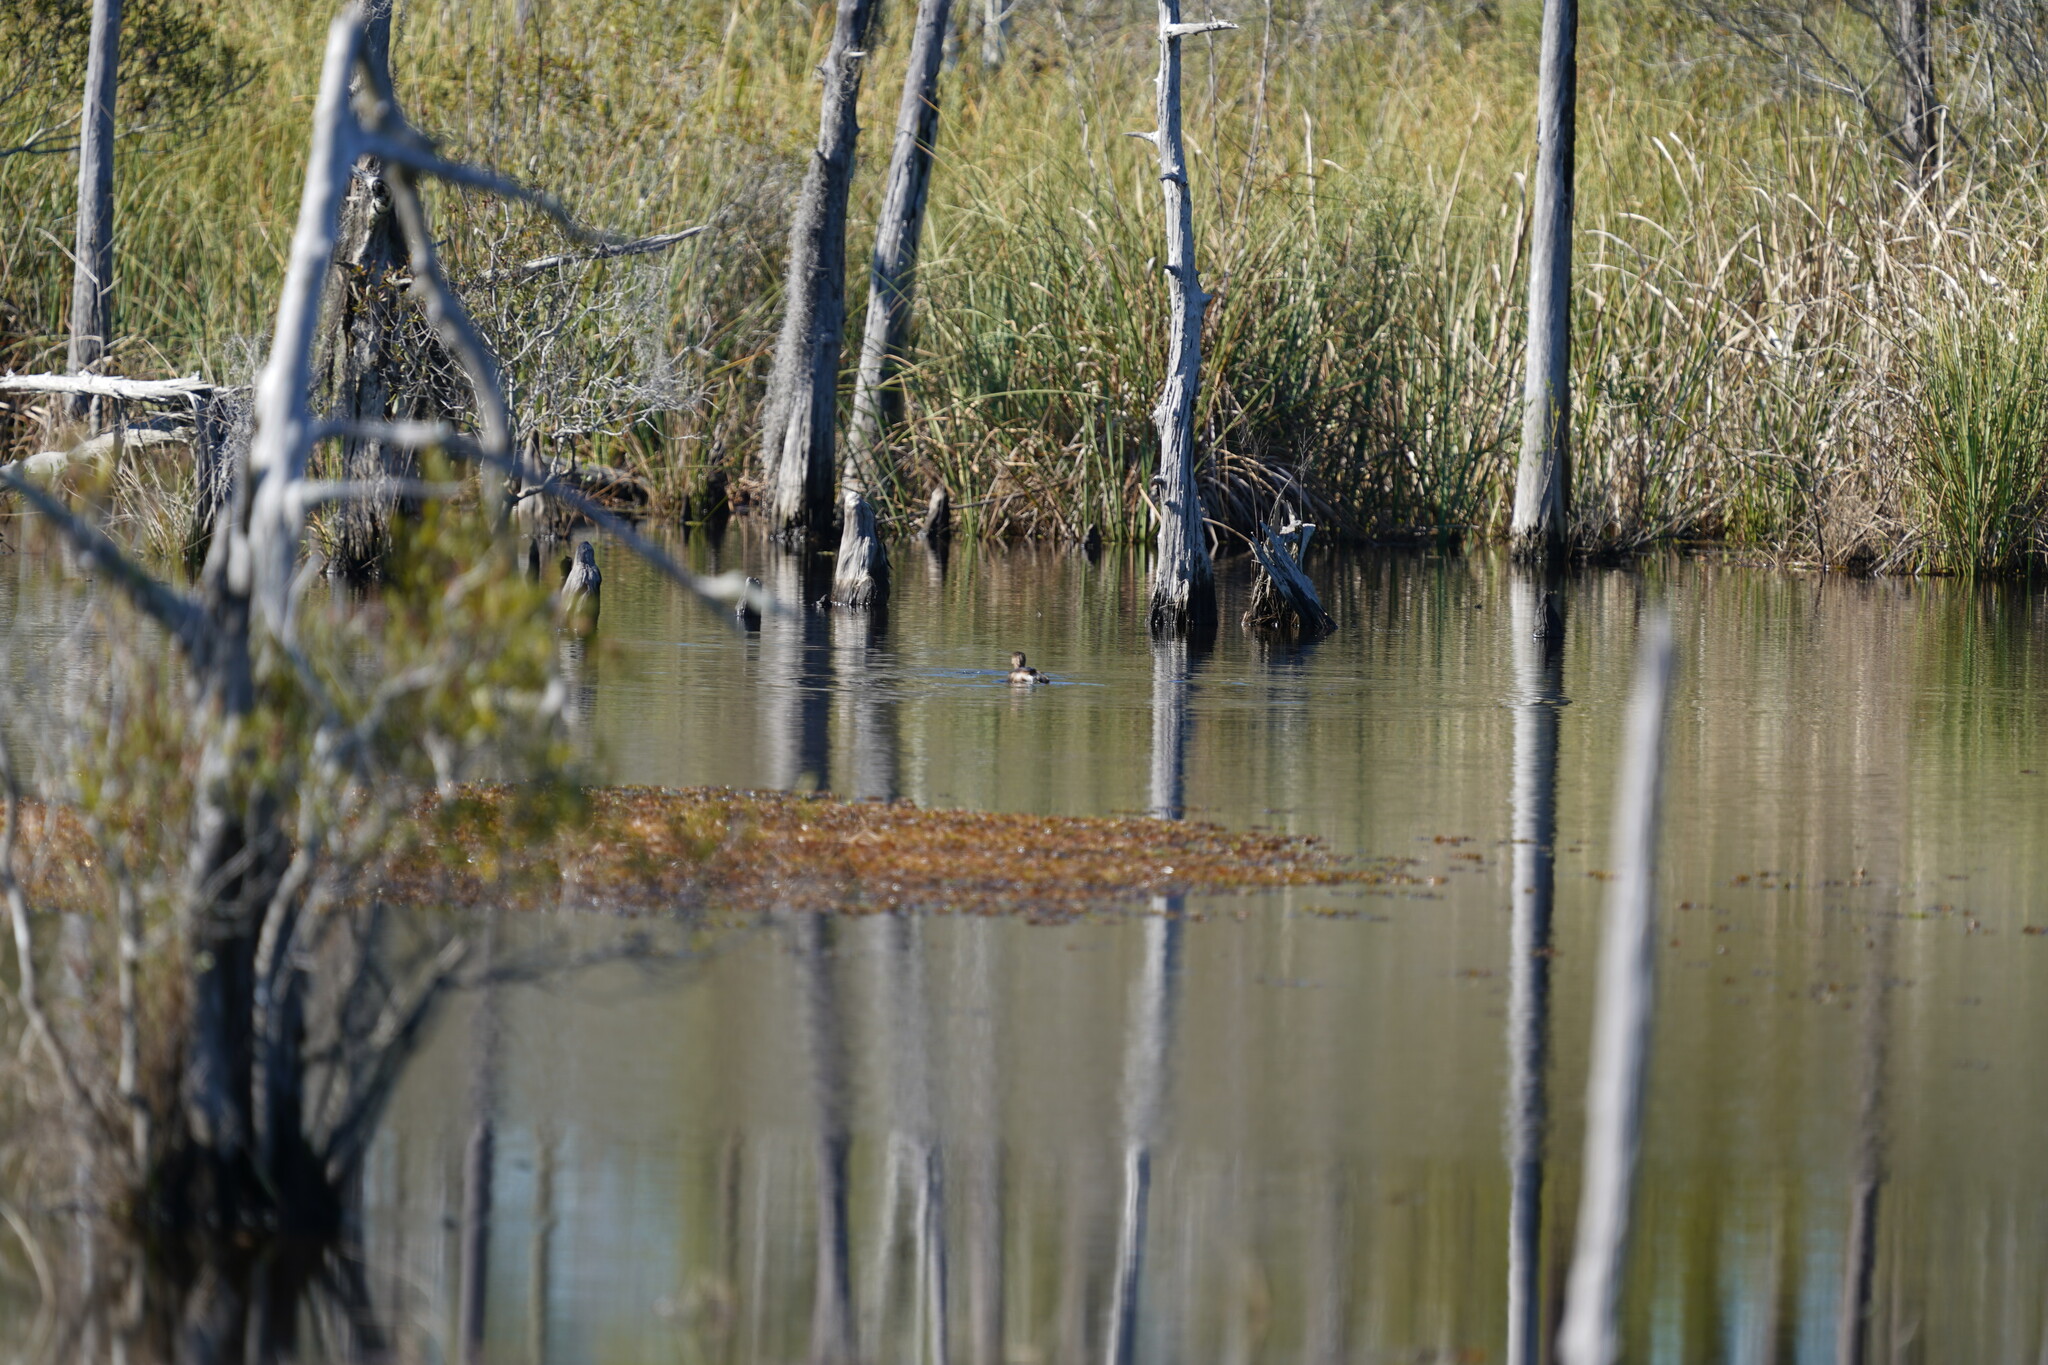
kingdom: Animalia
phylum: Chordata
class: Aves
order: Podicipediformes
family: Podicipedidae
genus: Podilymbus
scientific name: Podilymbus podiceps
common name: Pied-billed grebe
